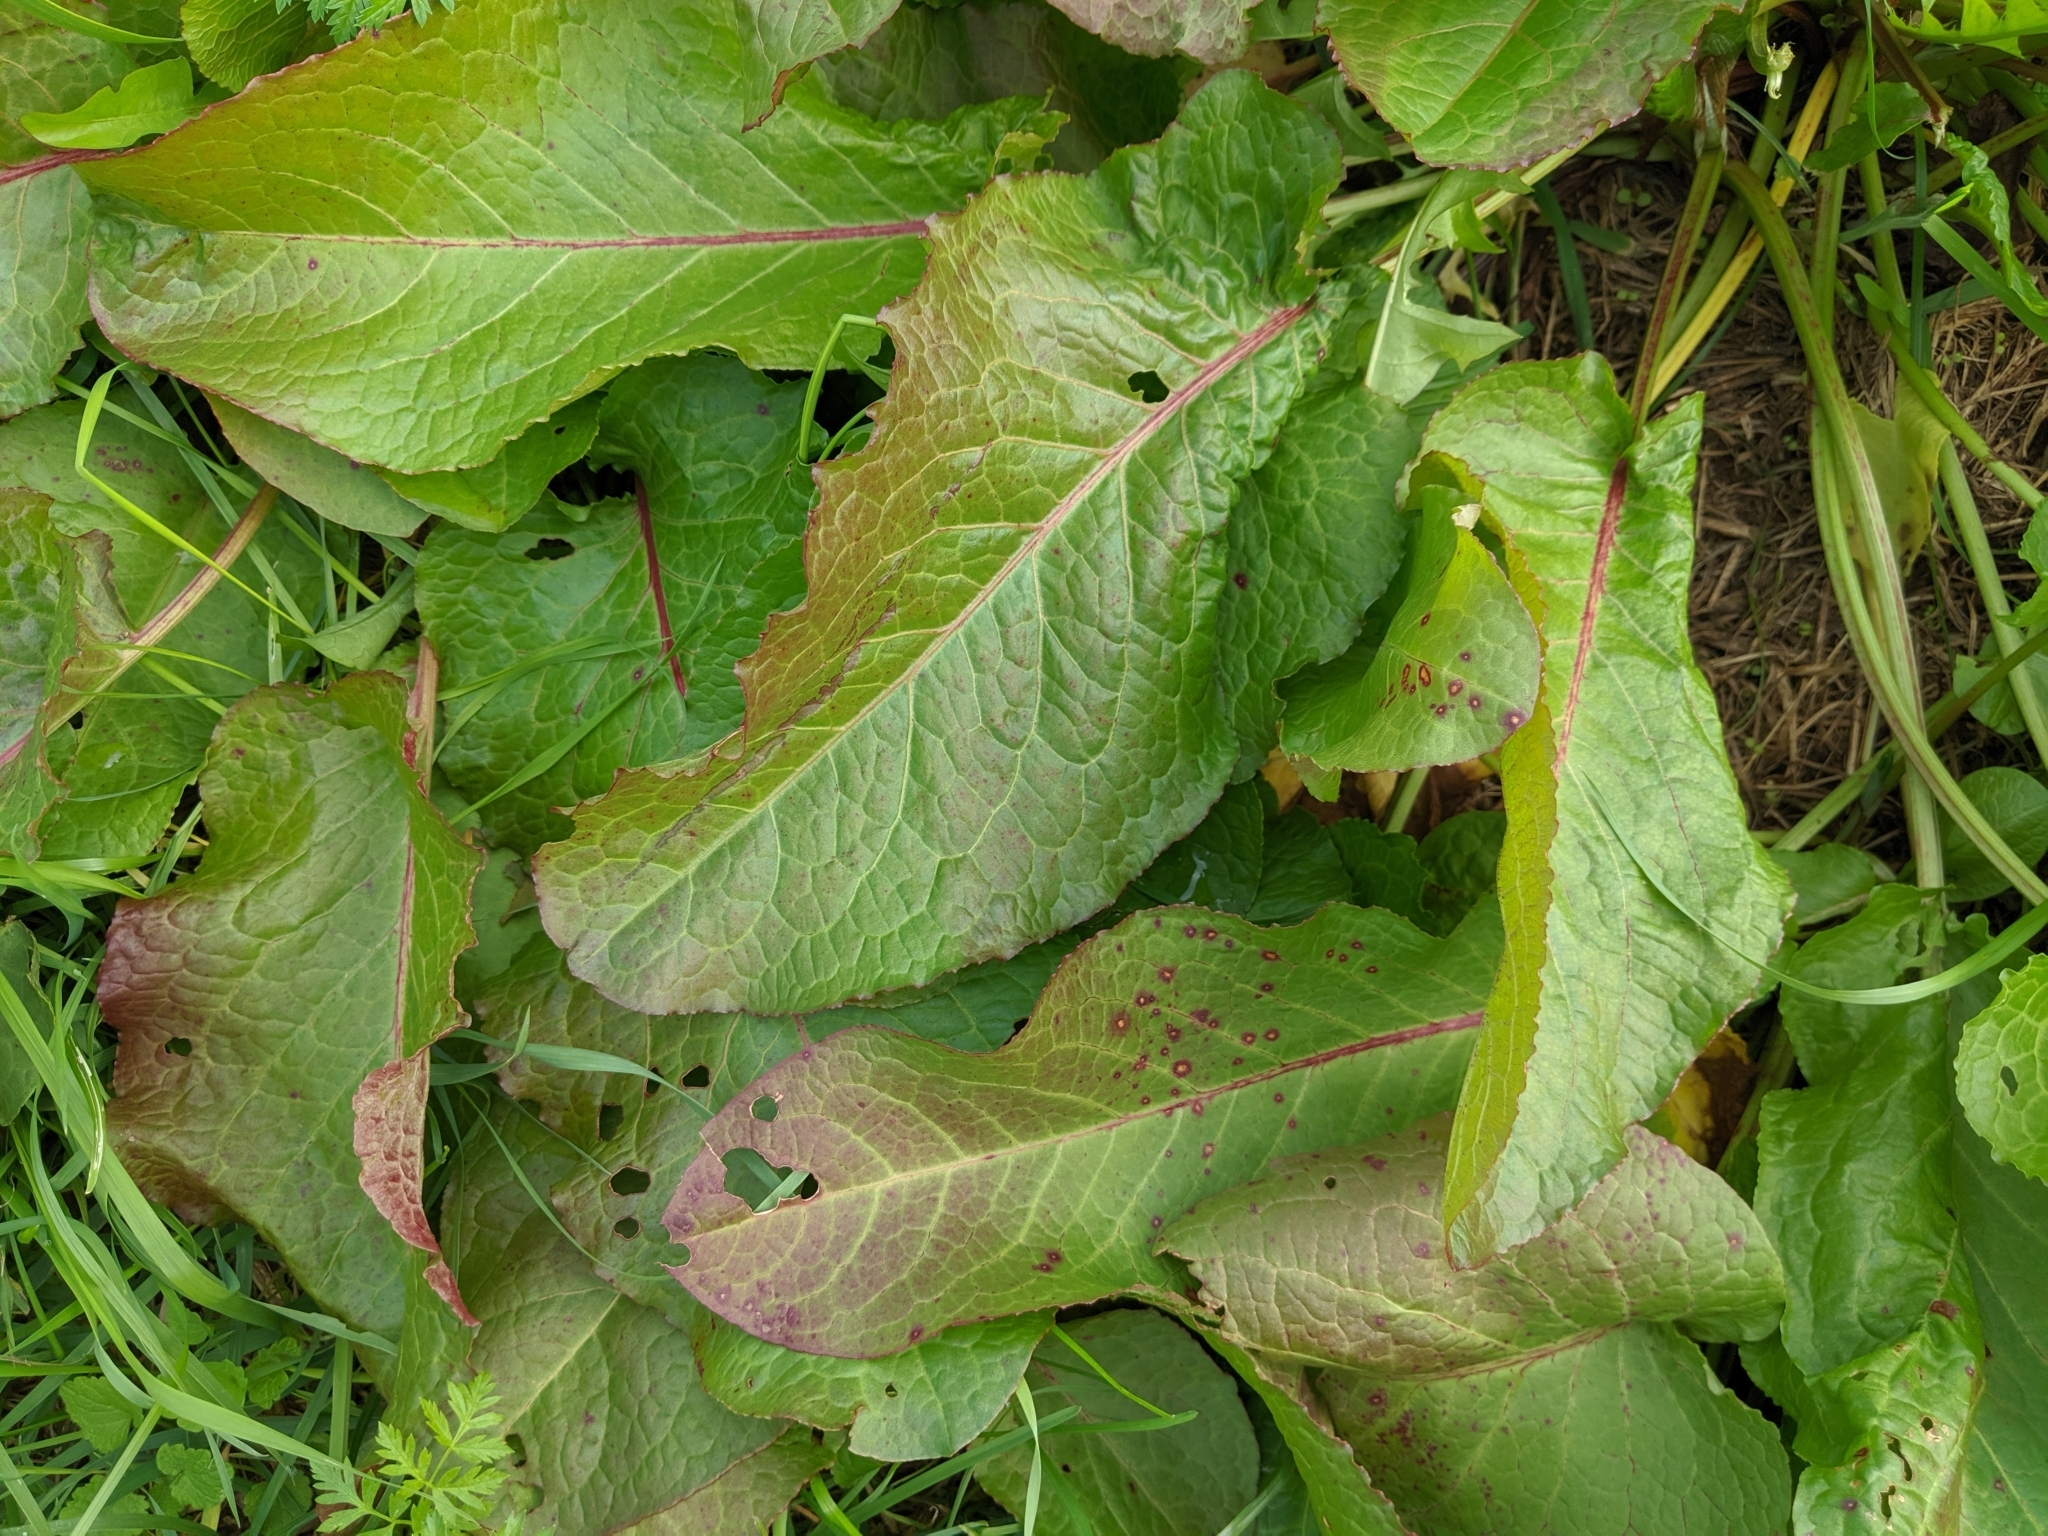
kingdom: Plantae
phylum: Tracheophyta
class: Magnoliopsida
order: Caryophyllales
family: Polygonaceae
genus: Rumex
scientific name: Rumex obtusifolius
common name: Bitter dock
